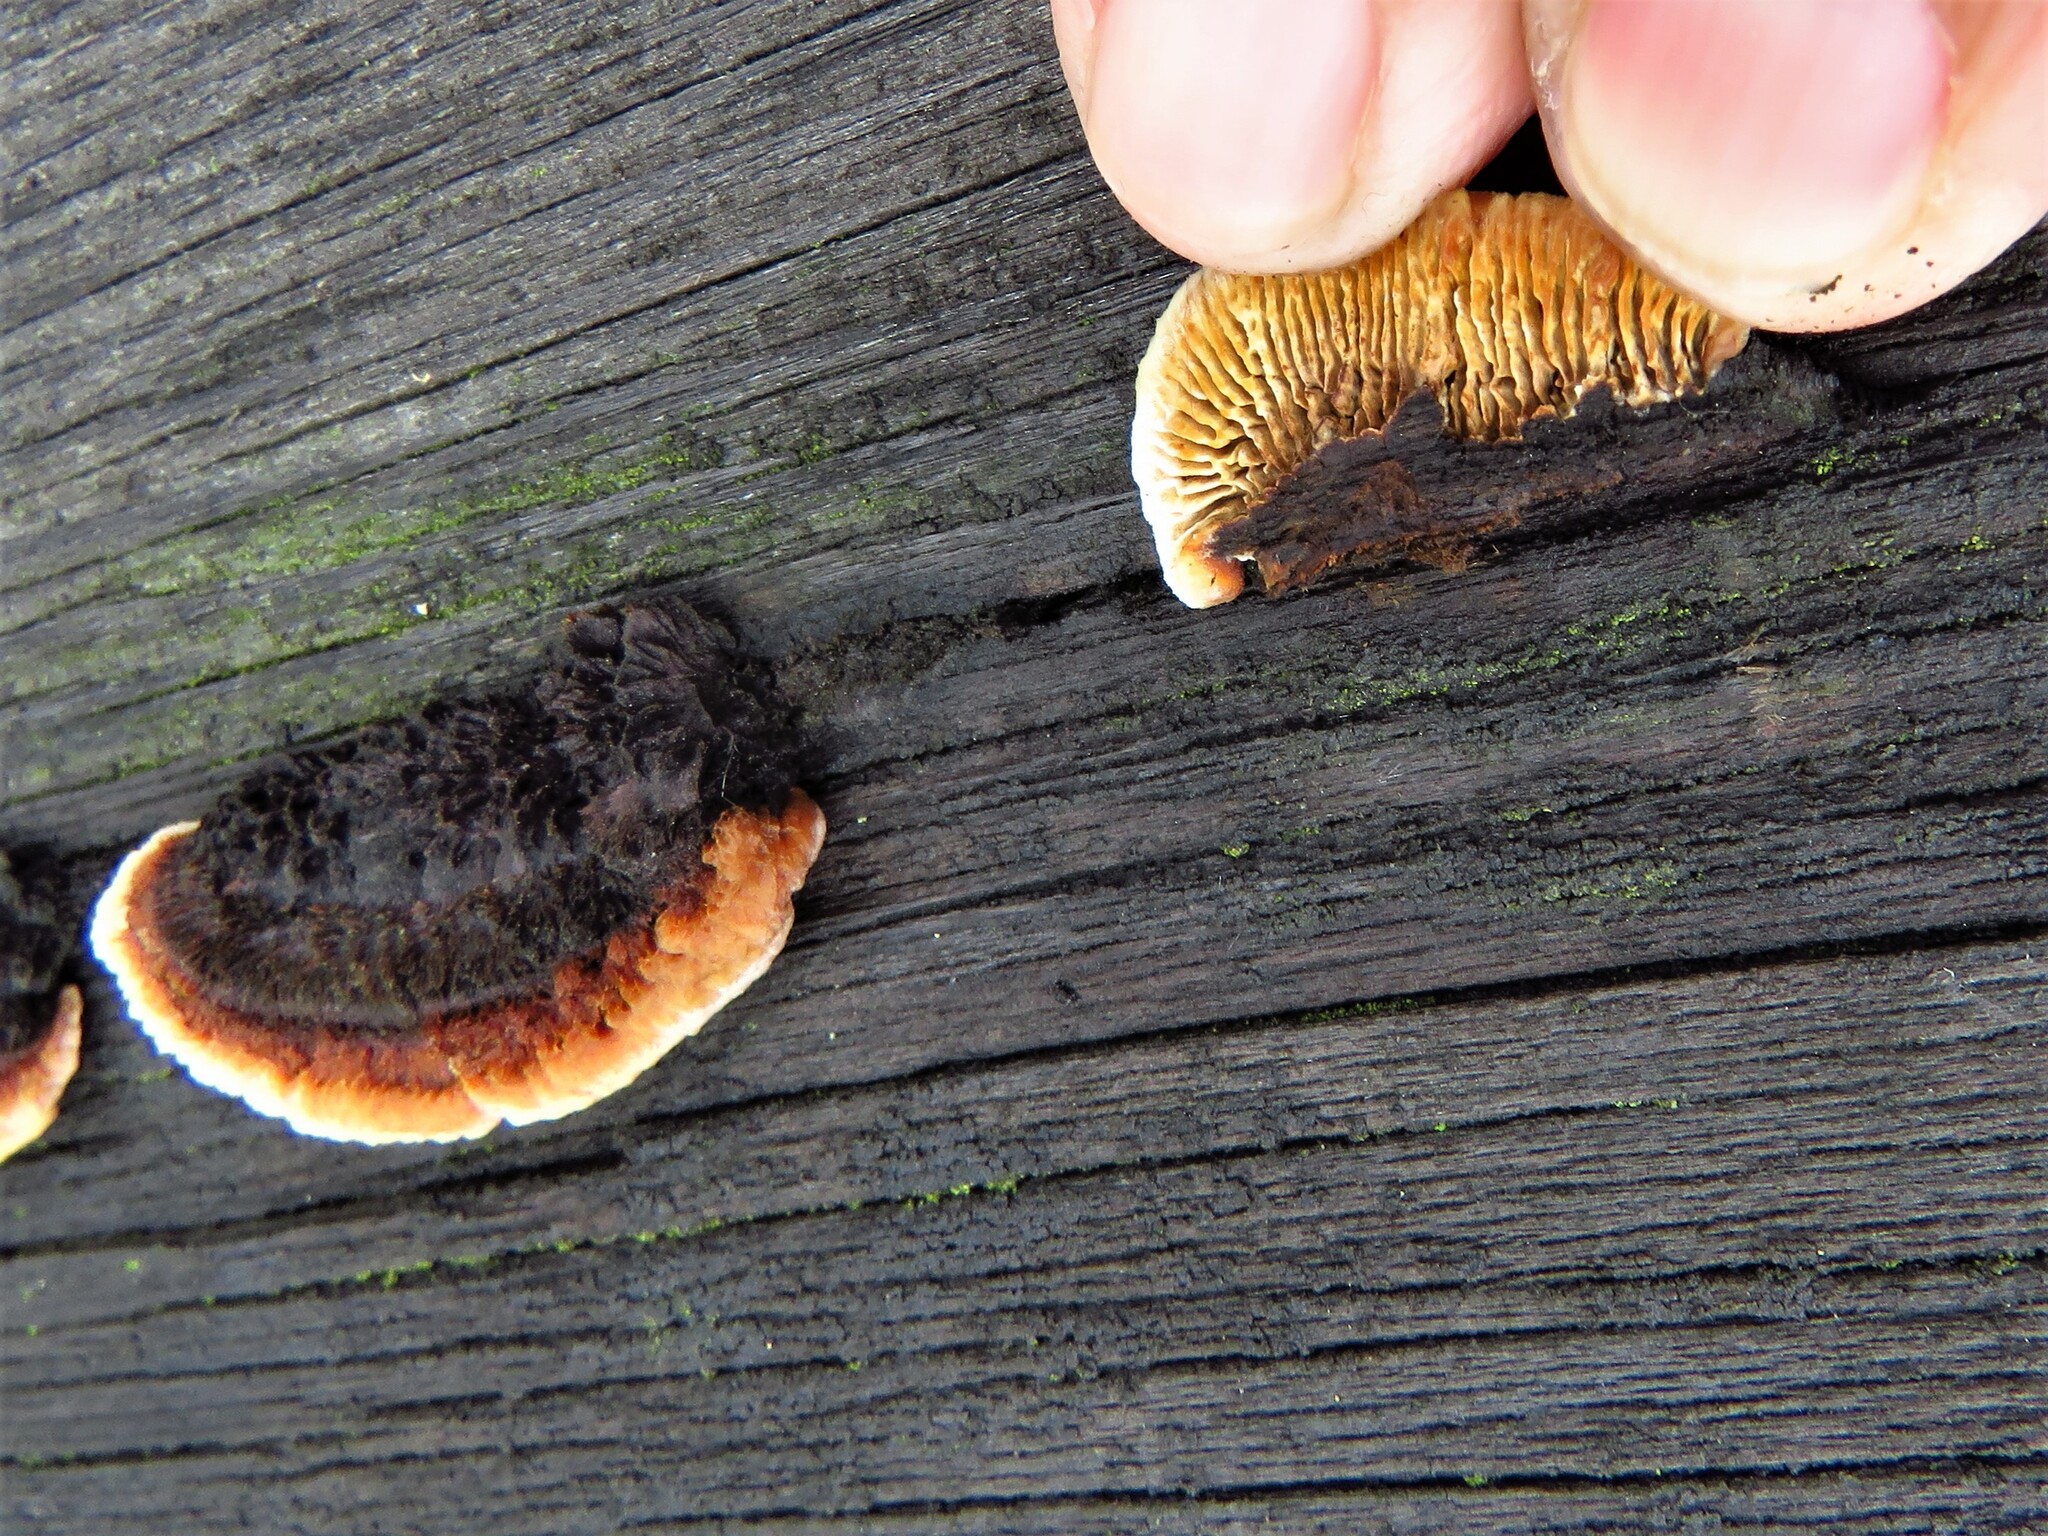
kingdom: Fungi
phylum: Basidiomycota
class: Agaricomycetes
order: Gloeophyllales
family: Gloeophyllaceae
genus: Gloeophyllum
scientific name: Gloeophyllum sepiarium
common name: Conifer mazegill
